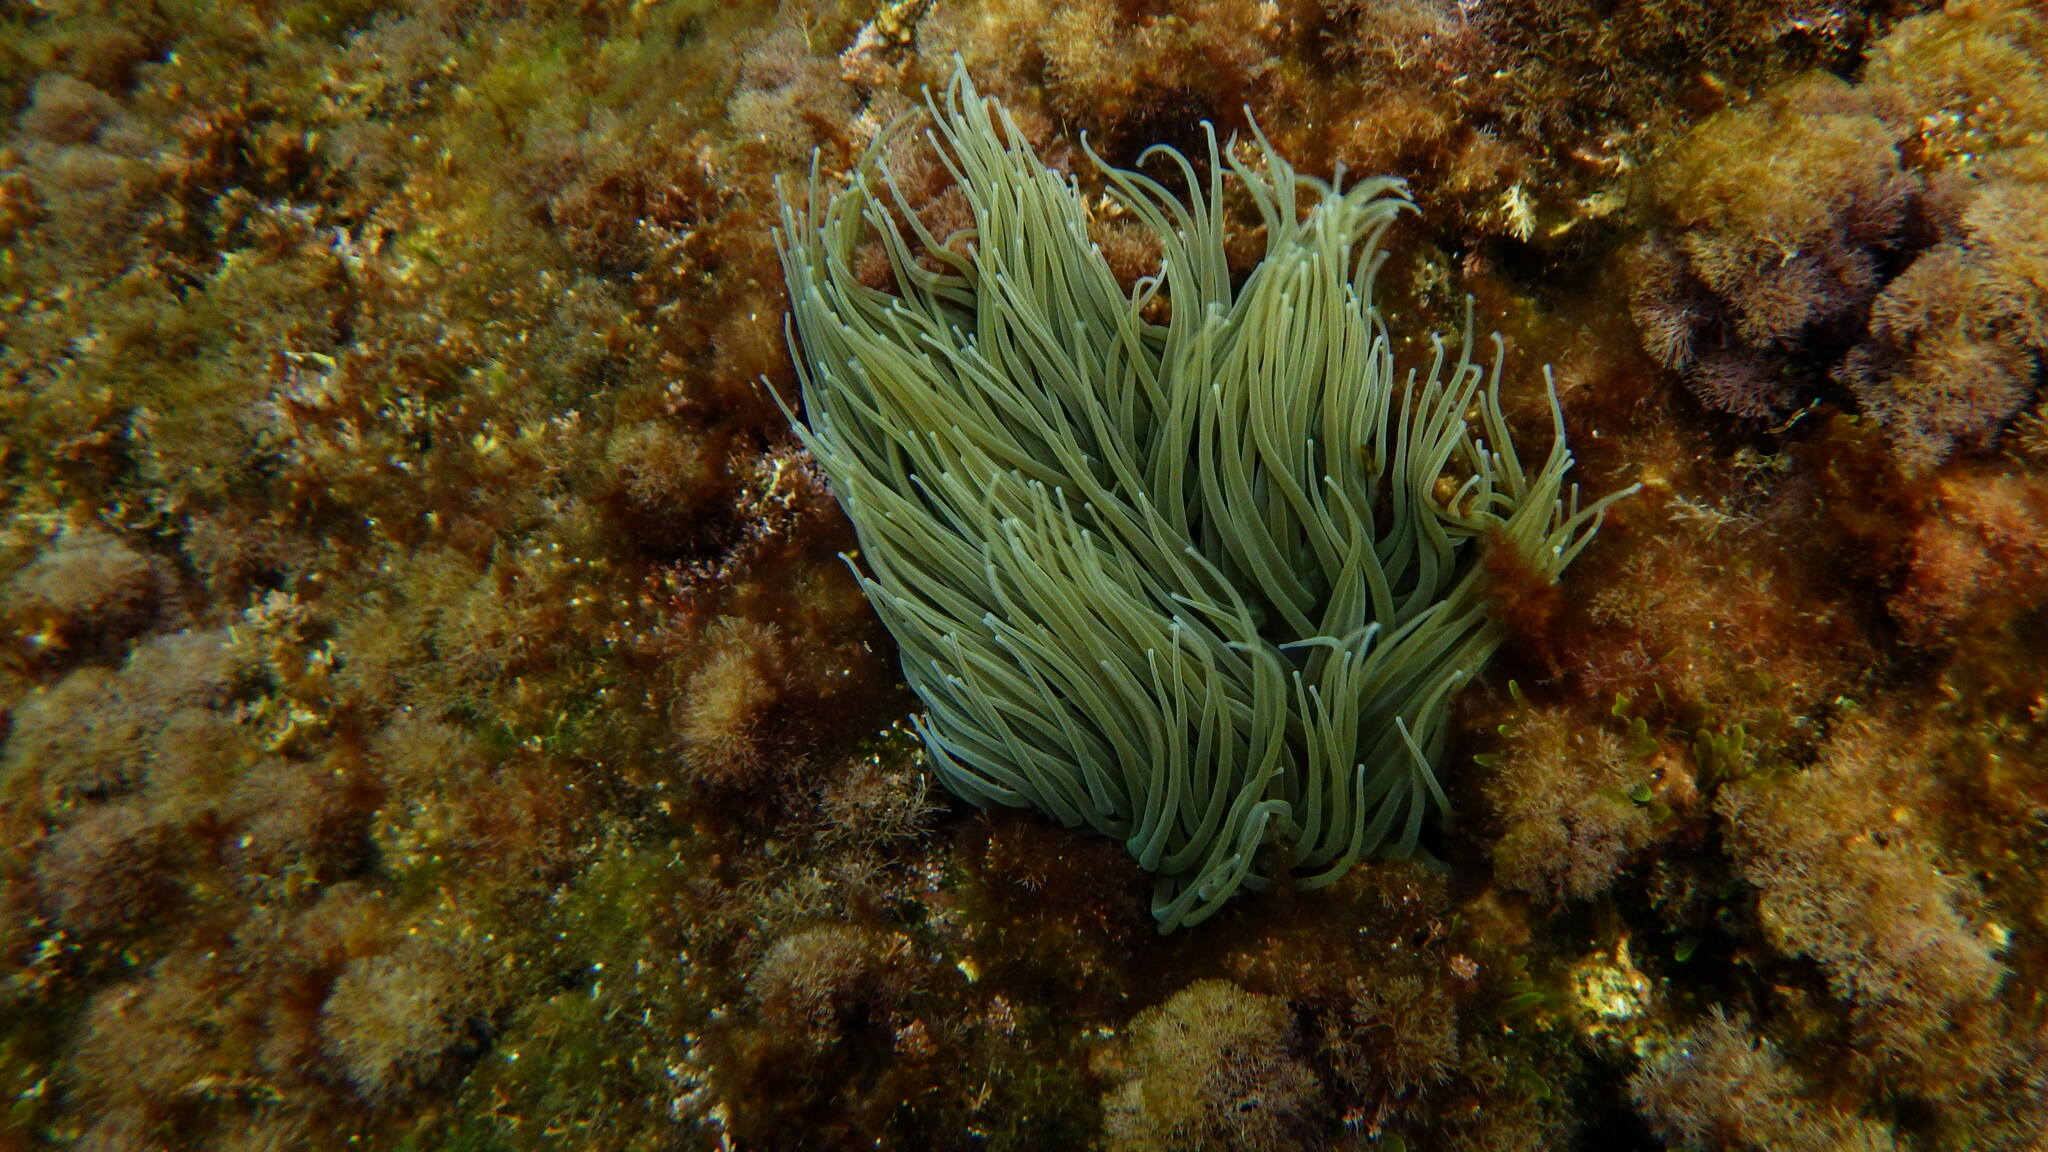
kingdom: Animalia
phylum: Cnidaria
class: Anthozoa
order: Actiniaria
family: Actiniidae
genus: Anemonia
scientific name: Anemonia viridis
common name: Snakelocks anemone
